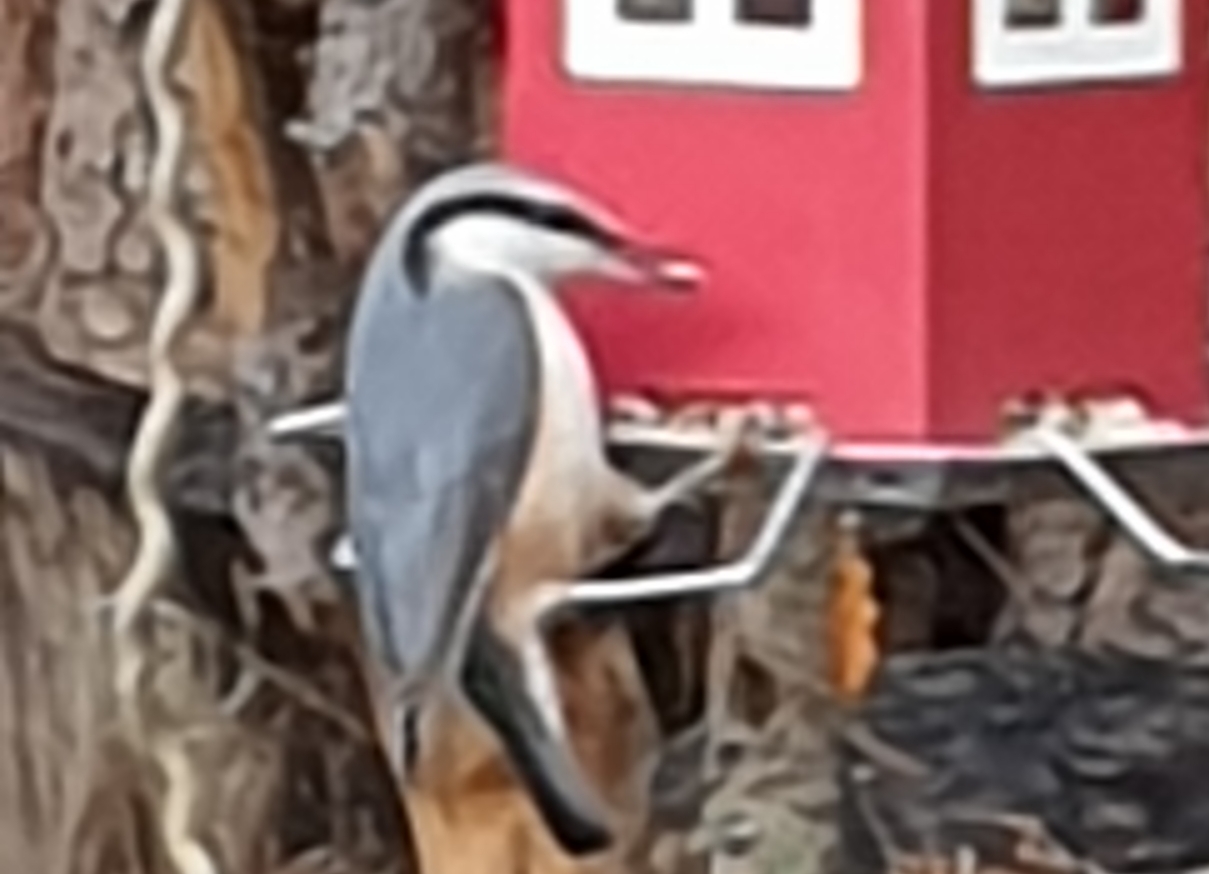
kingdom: Animalia
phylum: Chordata
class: Aves
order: Passeriformes
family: Sittidae
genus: Sitta
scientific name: Sitta europaea
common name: Eurasian nuthatch
